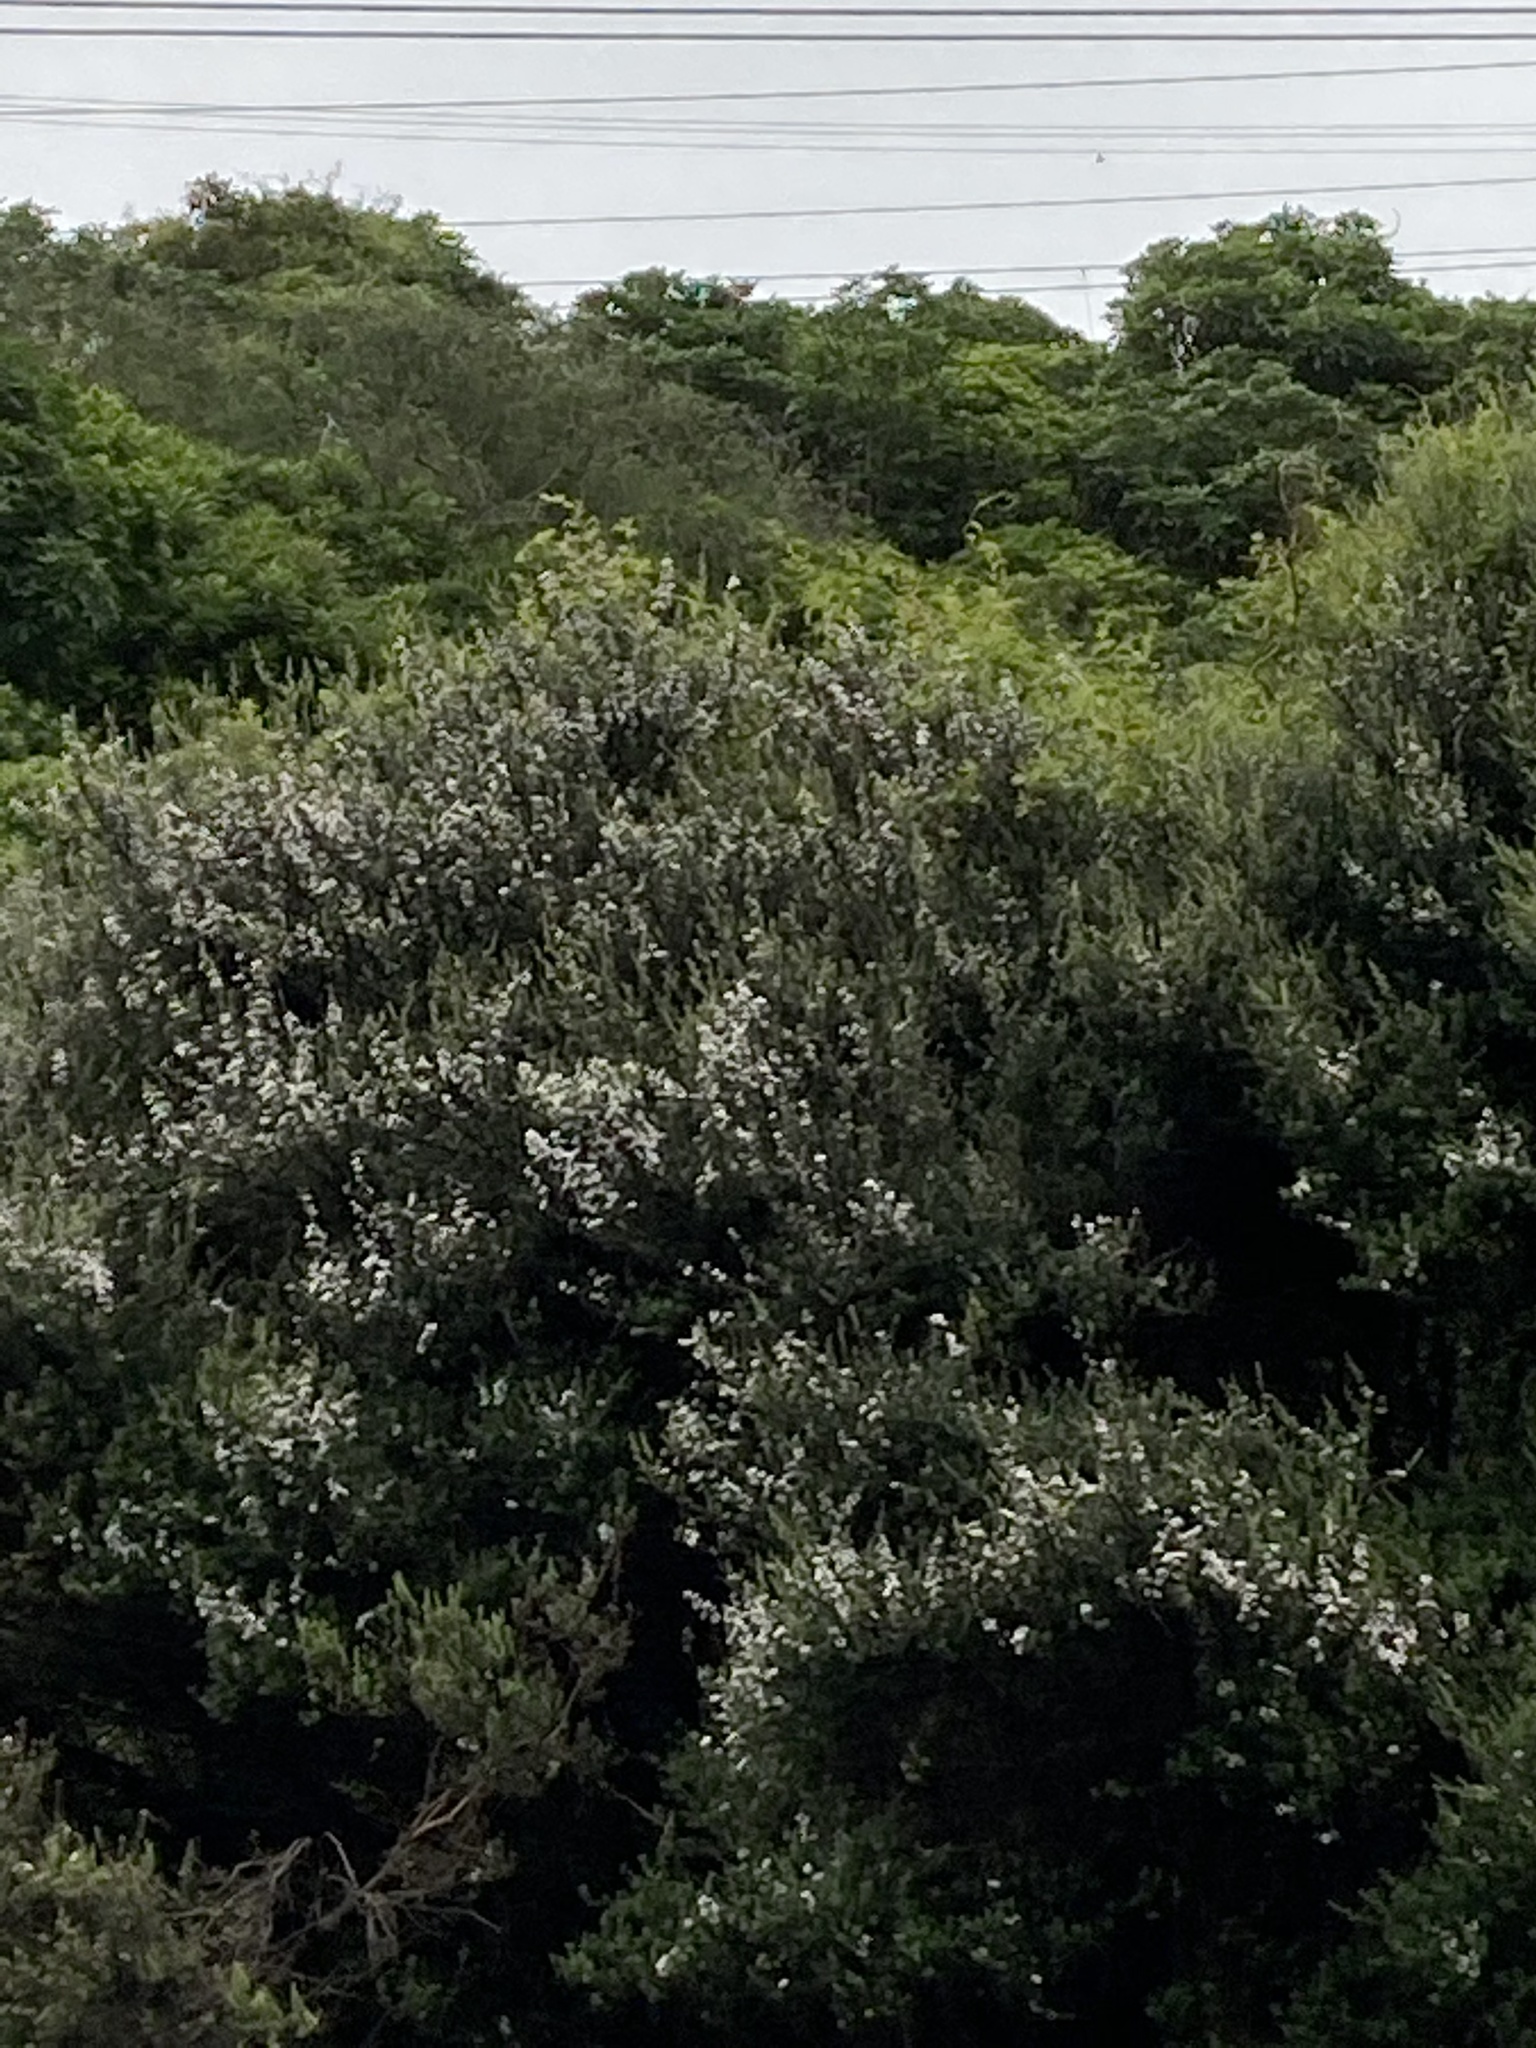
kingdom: Plantae
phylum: Tracheophyta
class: Magnoliopsida
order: Myrtales
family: Myrtaceae
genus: Leptospermum
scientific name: Leptospermum scoparium
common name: Broom tea-tree
